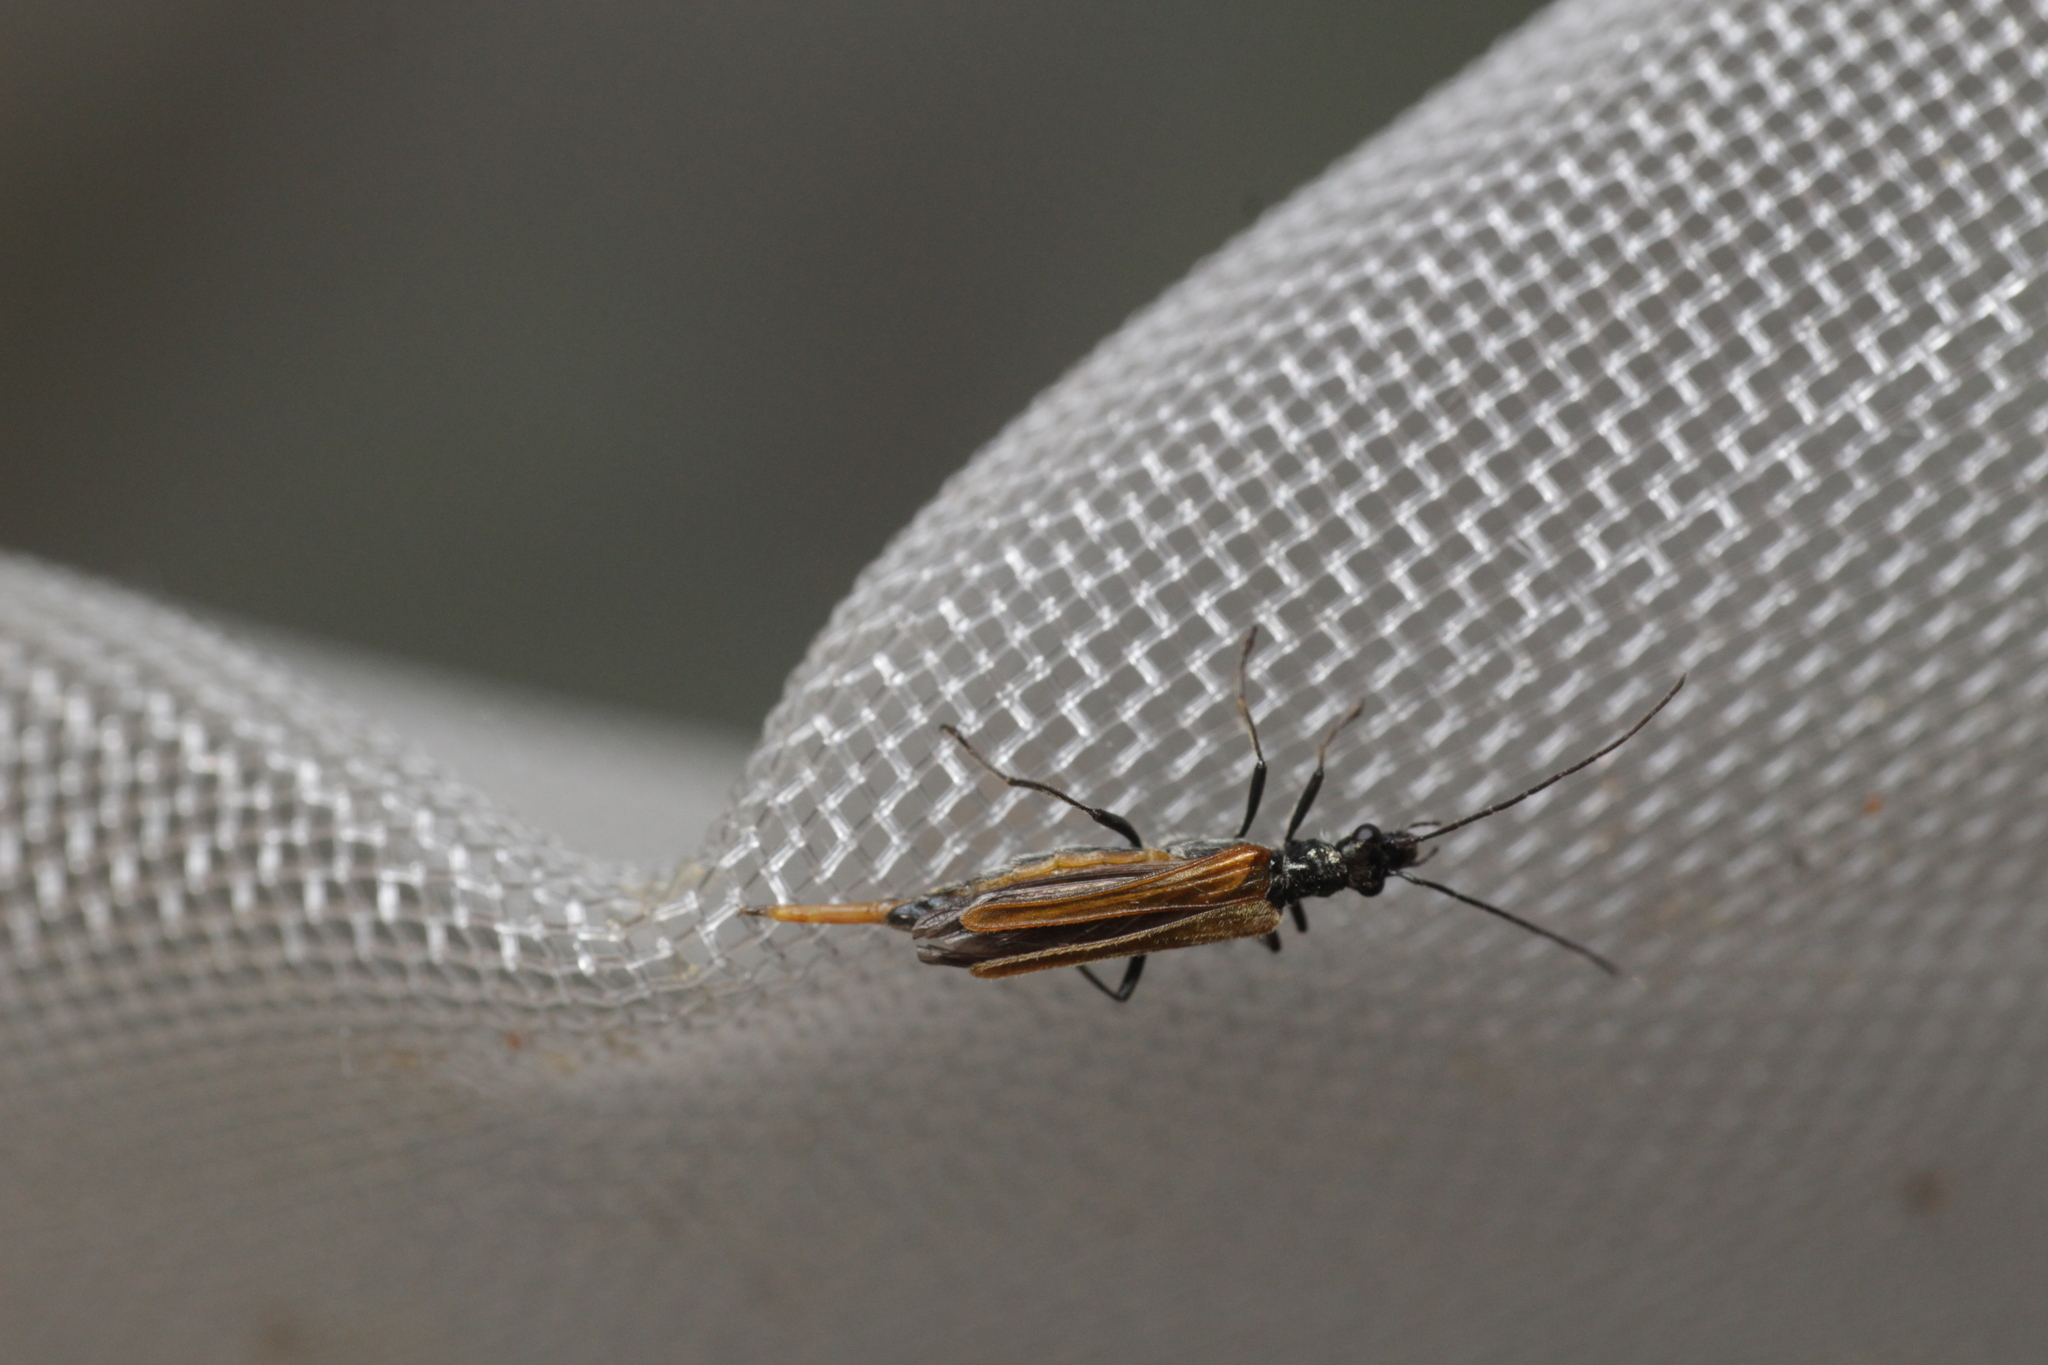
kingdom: Animalia
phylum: Arthropoda
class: Insecta
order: Coleoptera
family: Oedemeridae
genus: Oedemera
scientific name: Oedemera femorata
